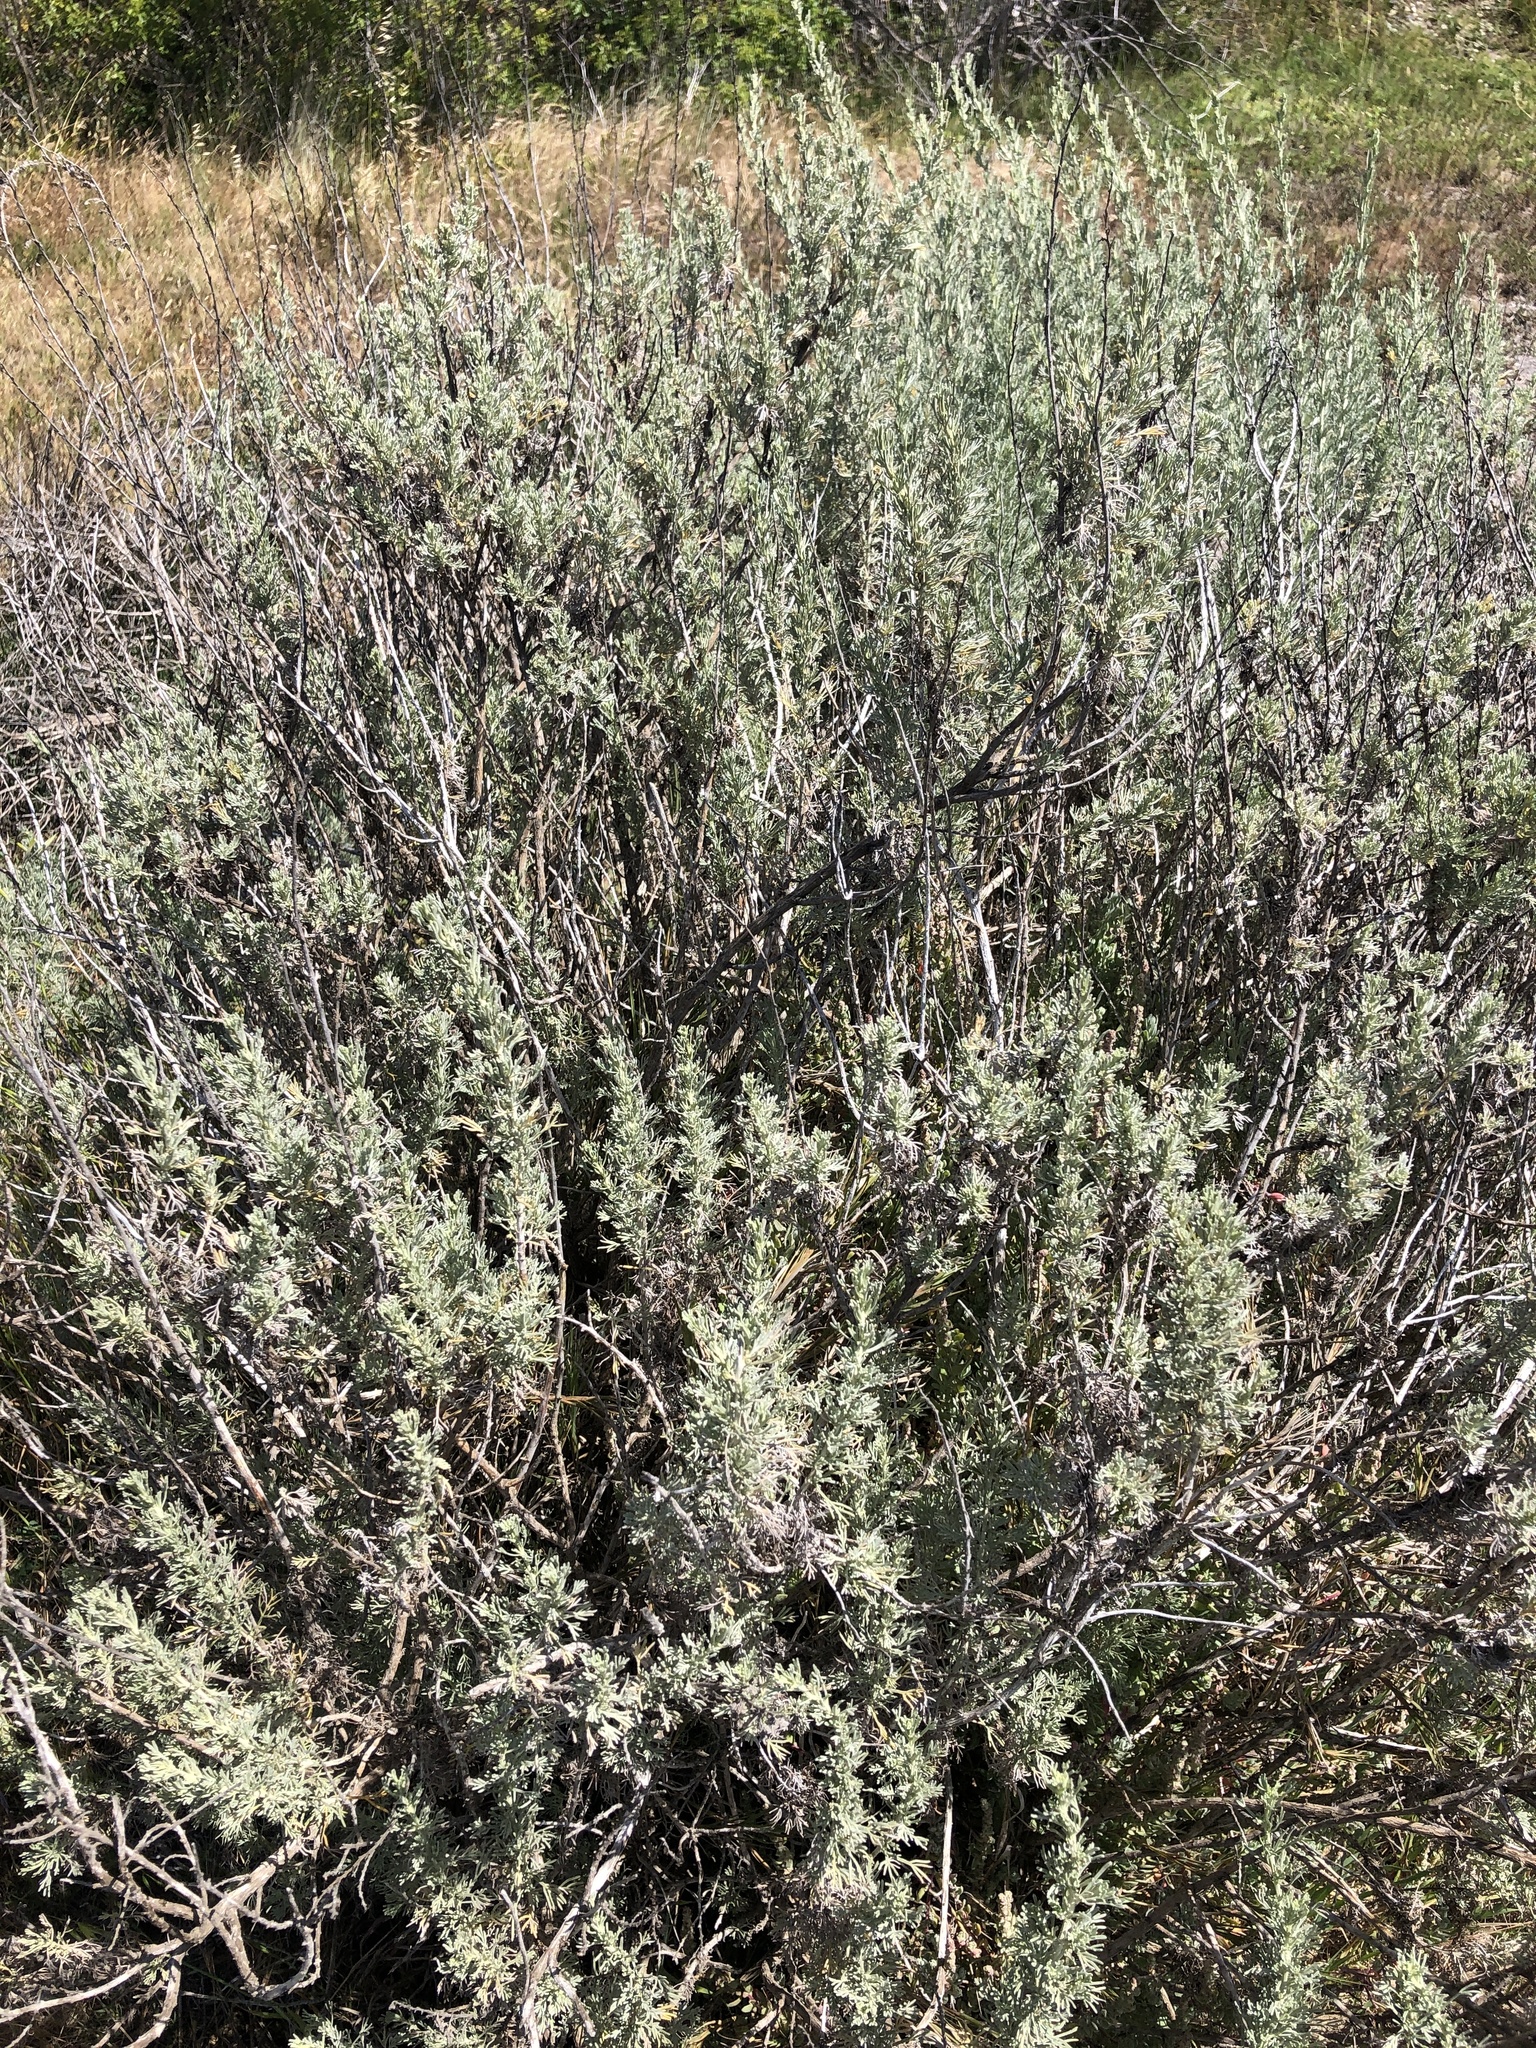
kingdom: Plantae
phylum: Tracheophyta
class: Magnoliopsida
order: Asterales
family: Asteraceae
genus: Artemisia
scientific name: Artemisia californica
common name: California sagebrush
